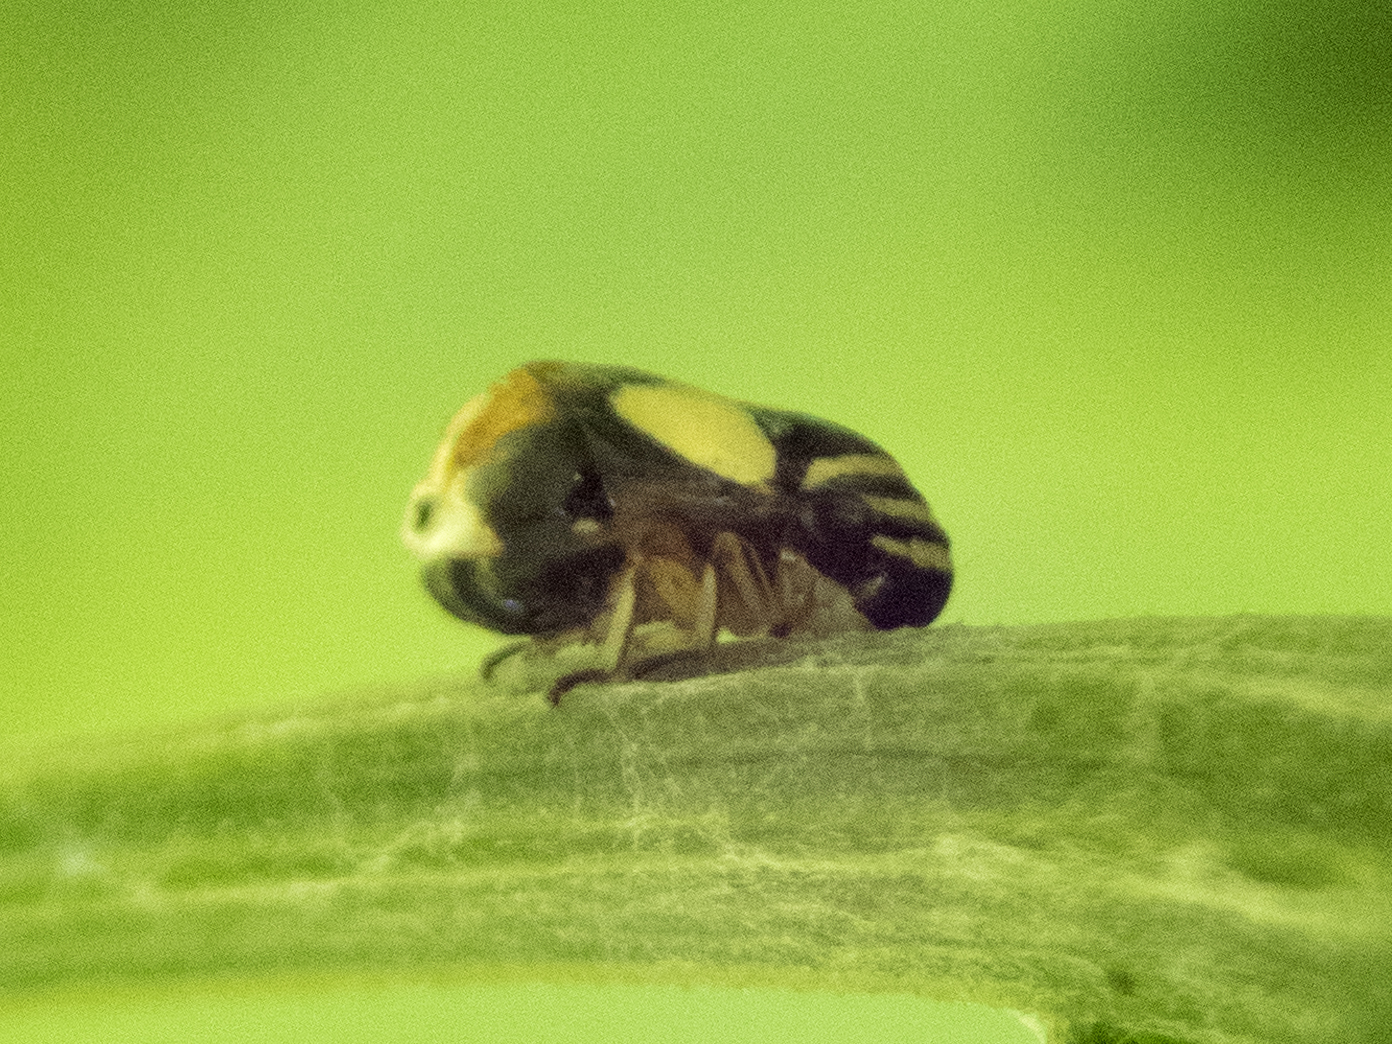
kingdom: Animalia
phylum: Arthropoda
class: Insecta
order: Hemiptera
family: Clastopteridae
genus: Clastoptera
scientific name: Clastoptera proteus
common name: Dogwood spittlebug
